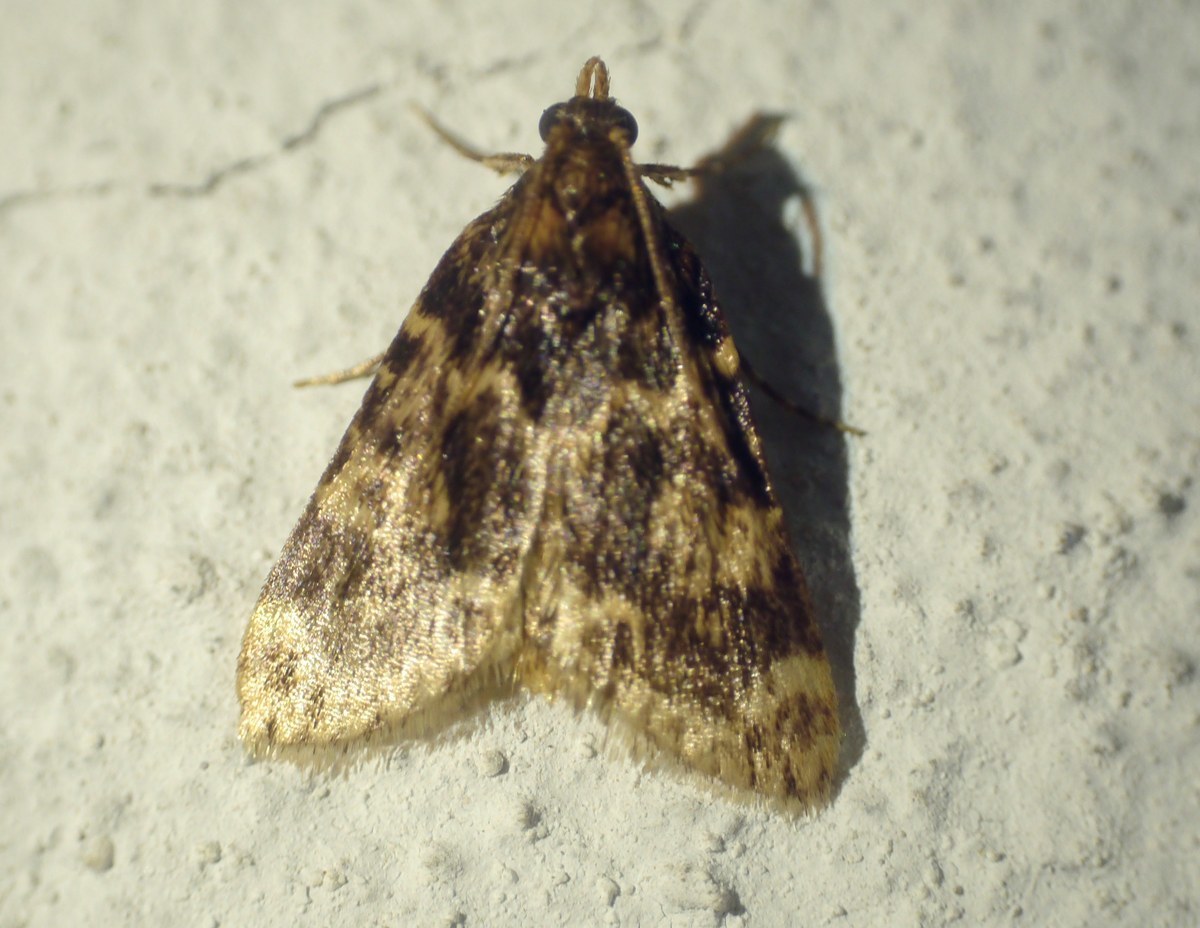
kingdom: Animalia
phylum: Arthropoda
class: Insecta
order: Lepidoptera
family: Pyralidae
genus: Aglossa
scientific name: Aglossa caprealis
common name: Small tabby
